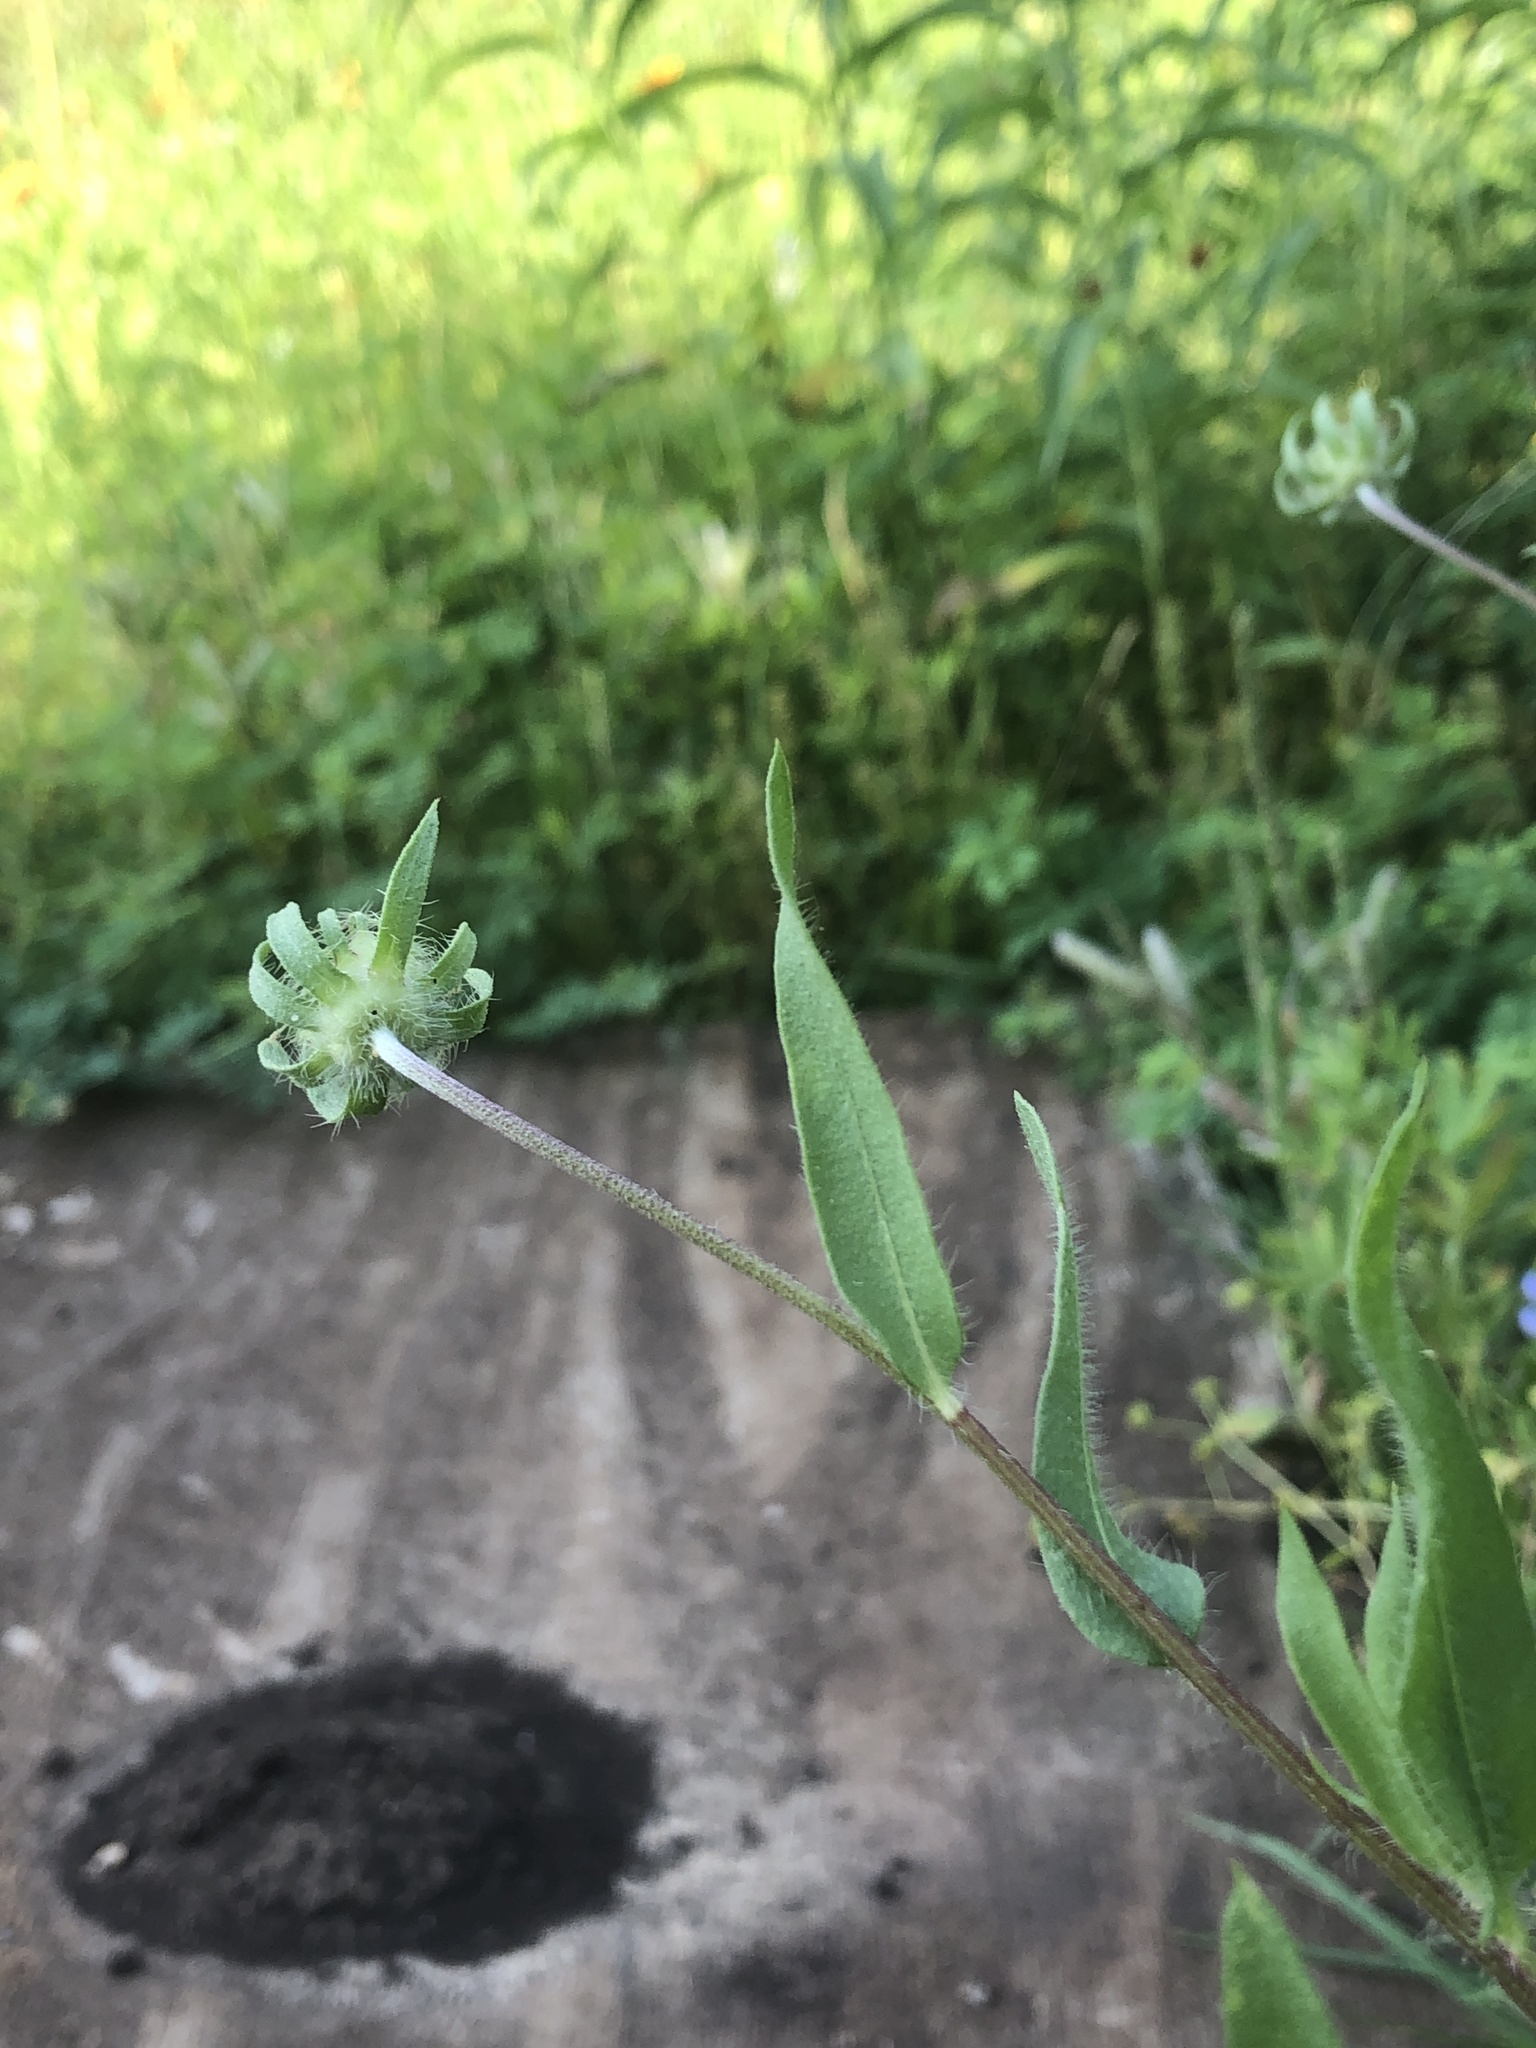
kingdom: Plantae
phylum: Tracheophyta
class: Magnoliopsida
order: Asterales
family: Asteraceae
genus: Gaillardia
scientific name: Gaillardia pulchella
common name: Firewheel
